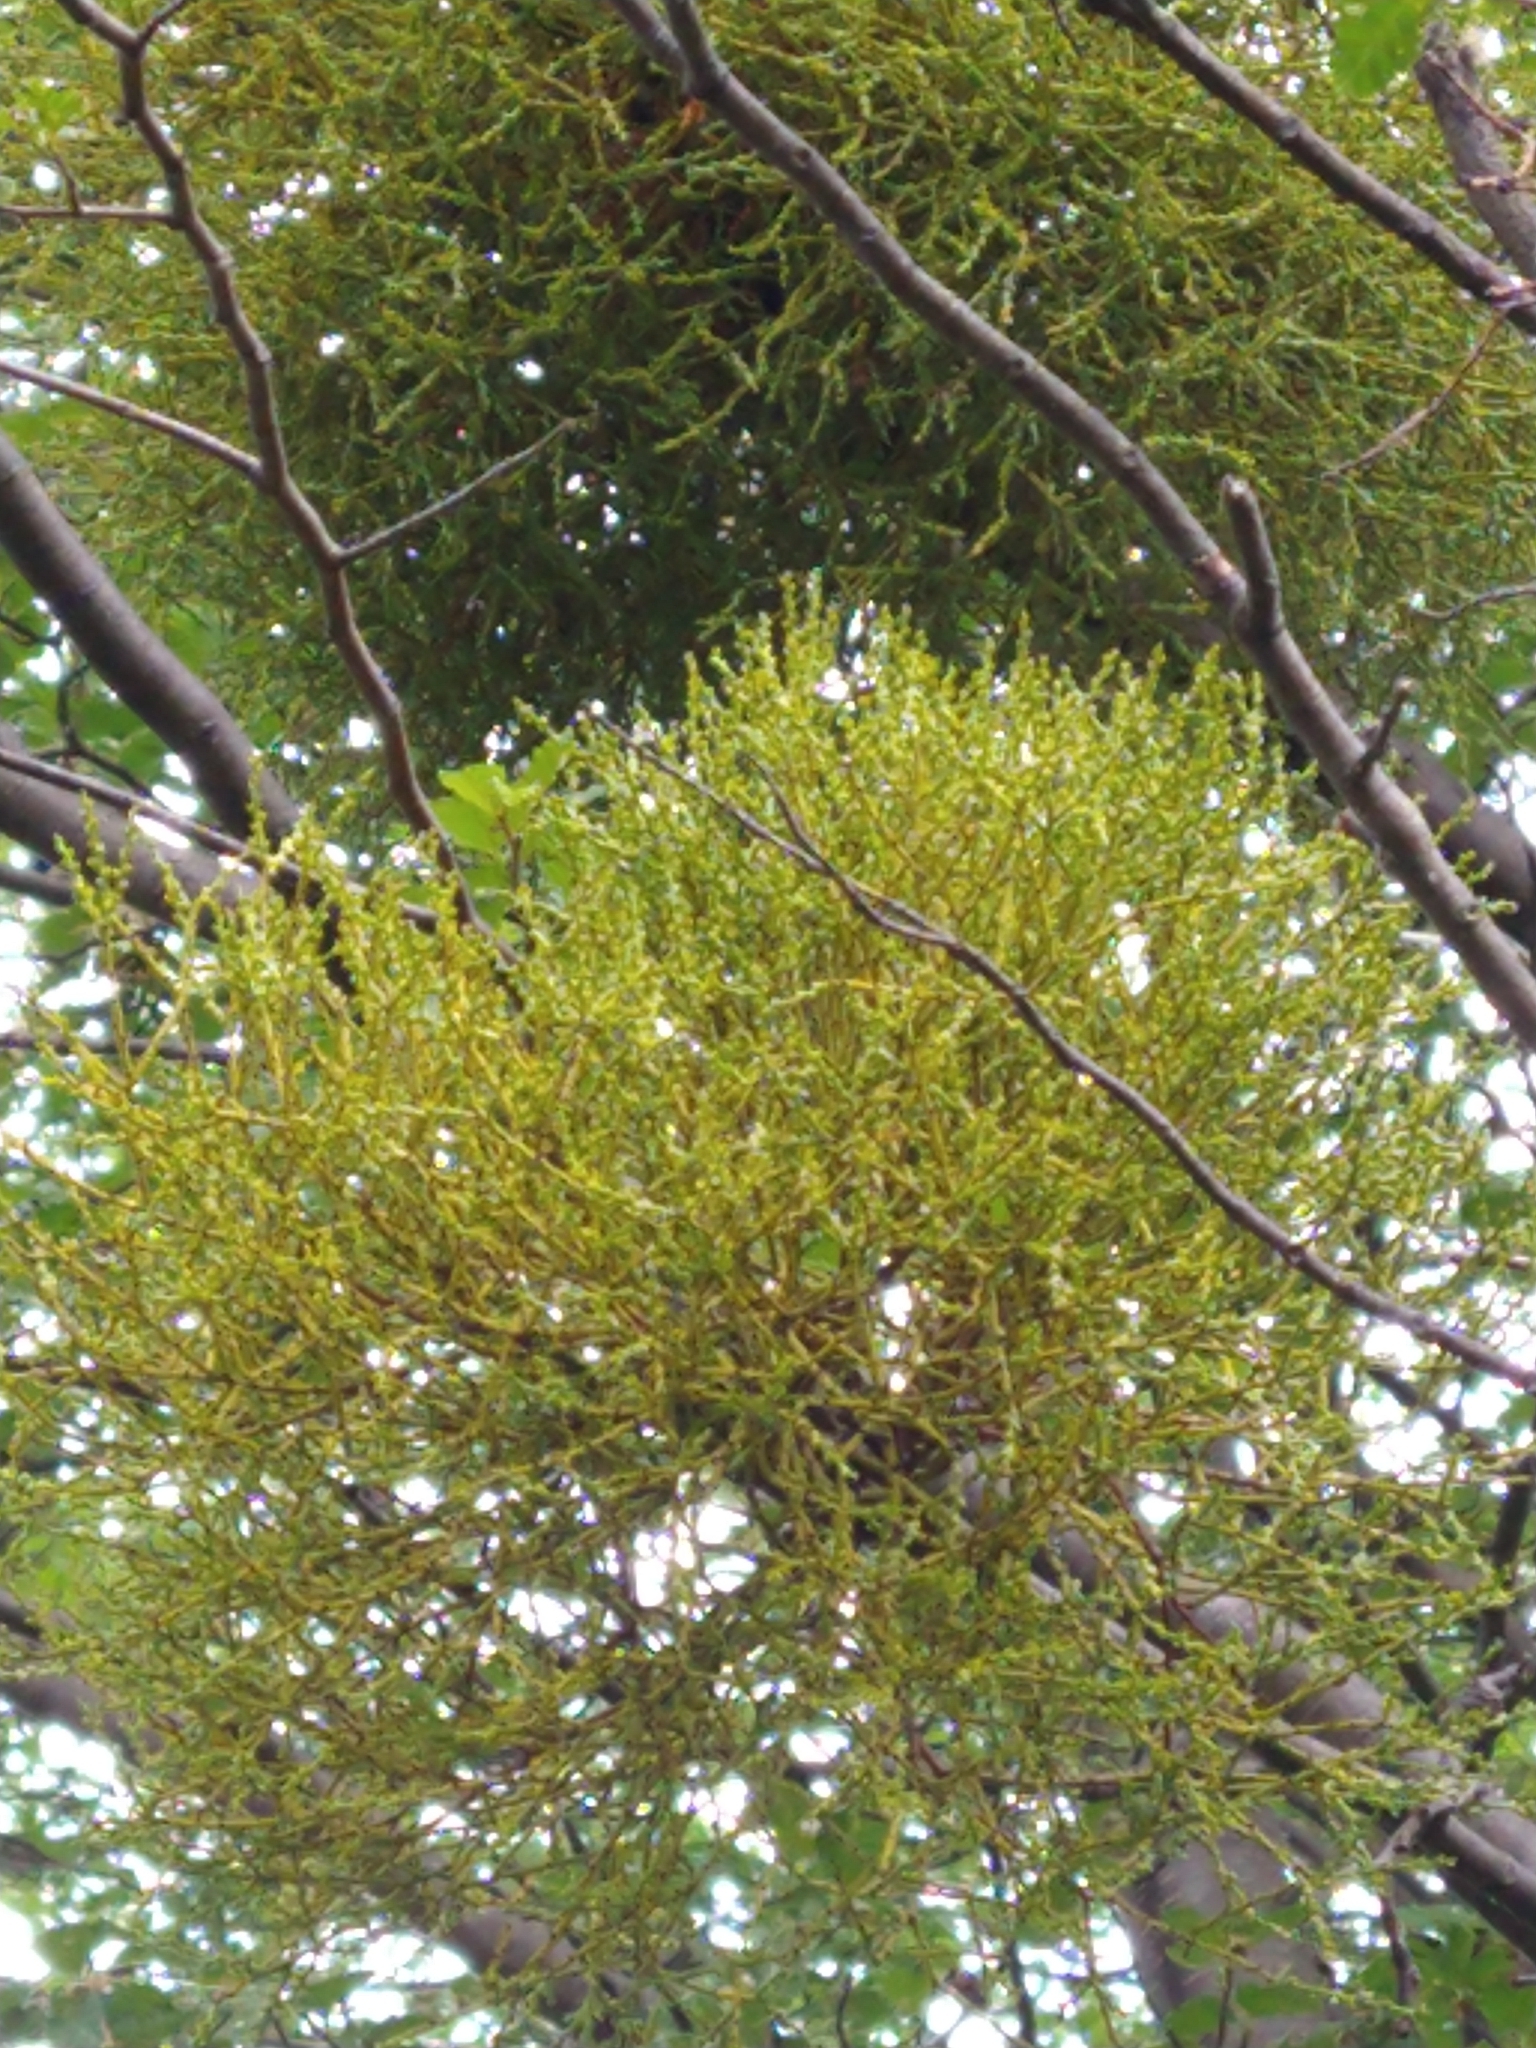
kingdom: Plantae
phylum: Tracheophyta
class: Magnoliopsida
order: Santalales
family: Misodendraceae
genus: Misodendrum
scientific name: Misodendrum punctulatum
